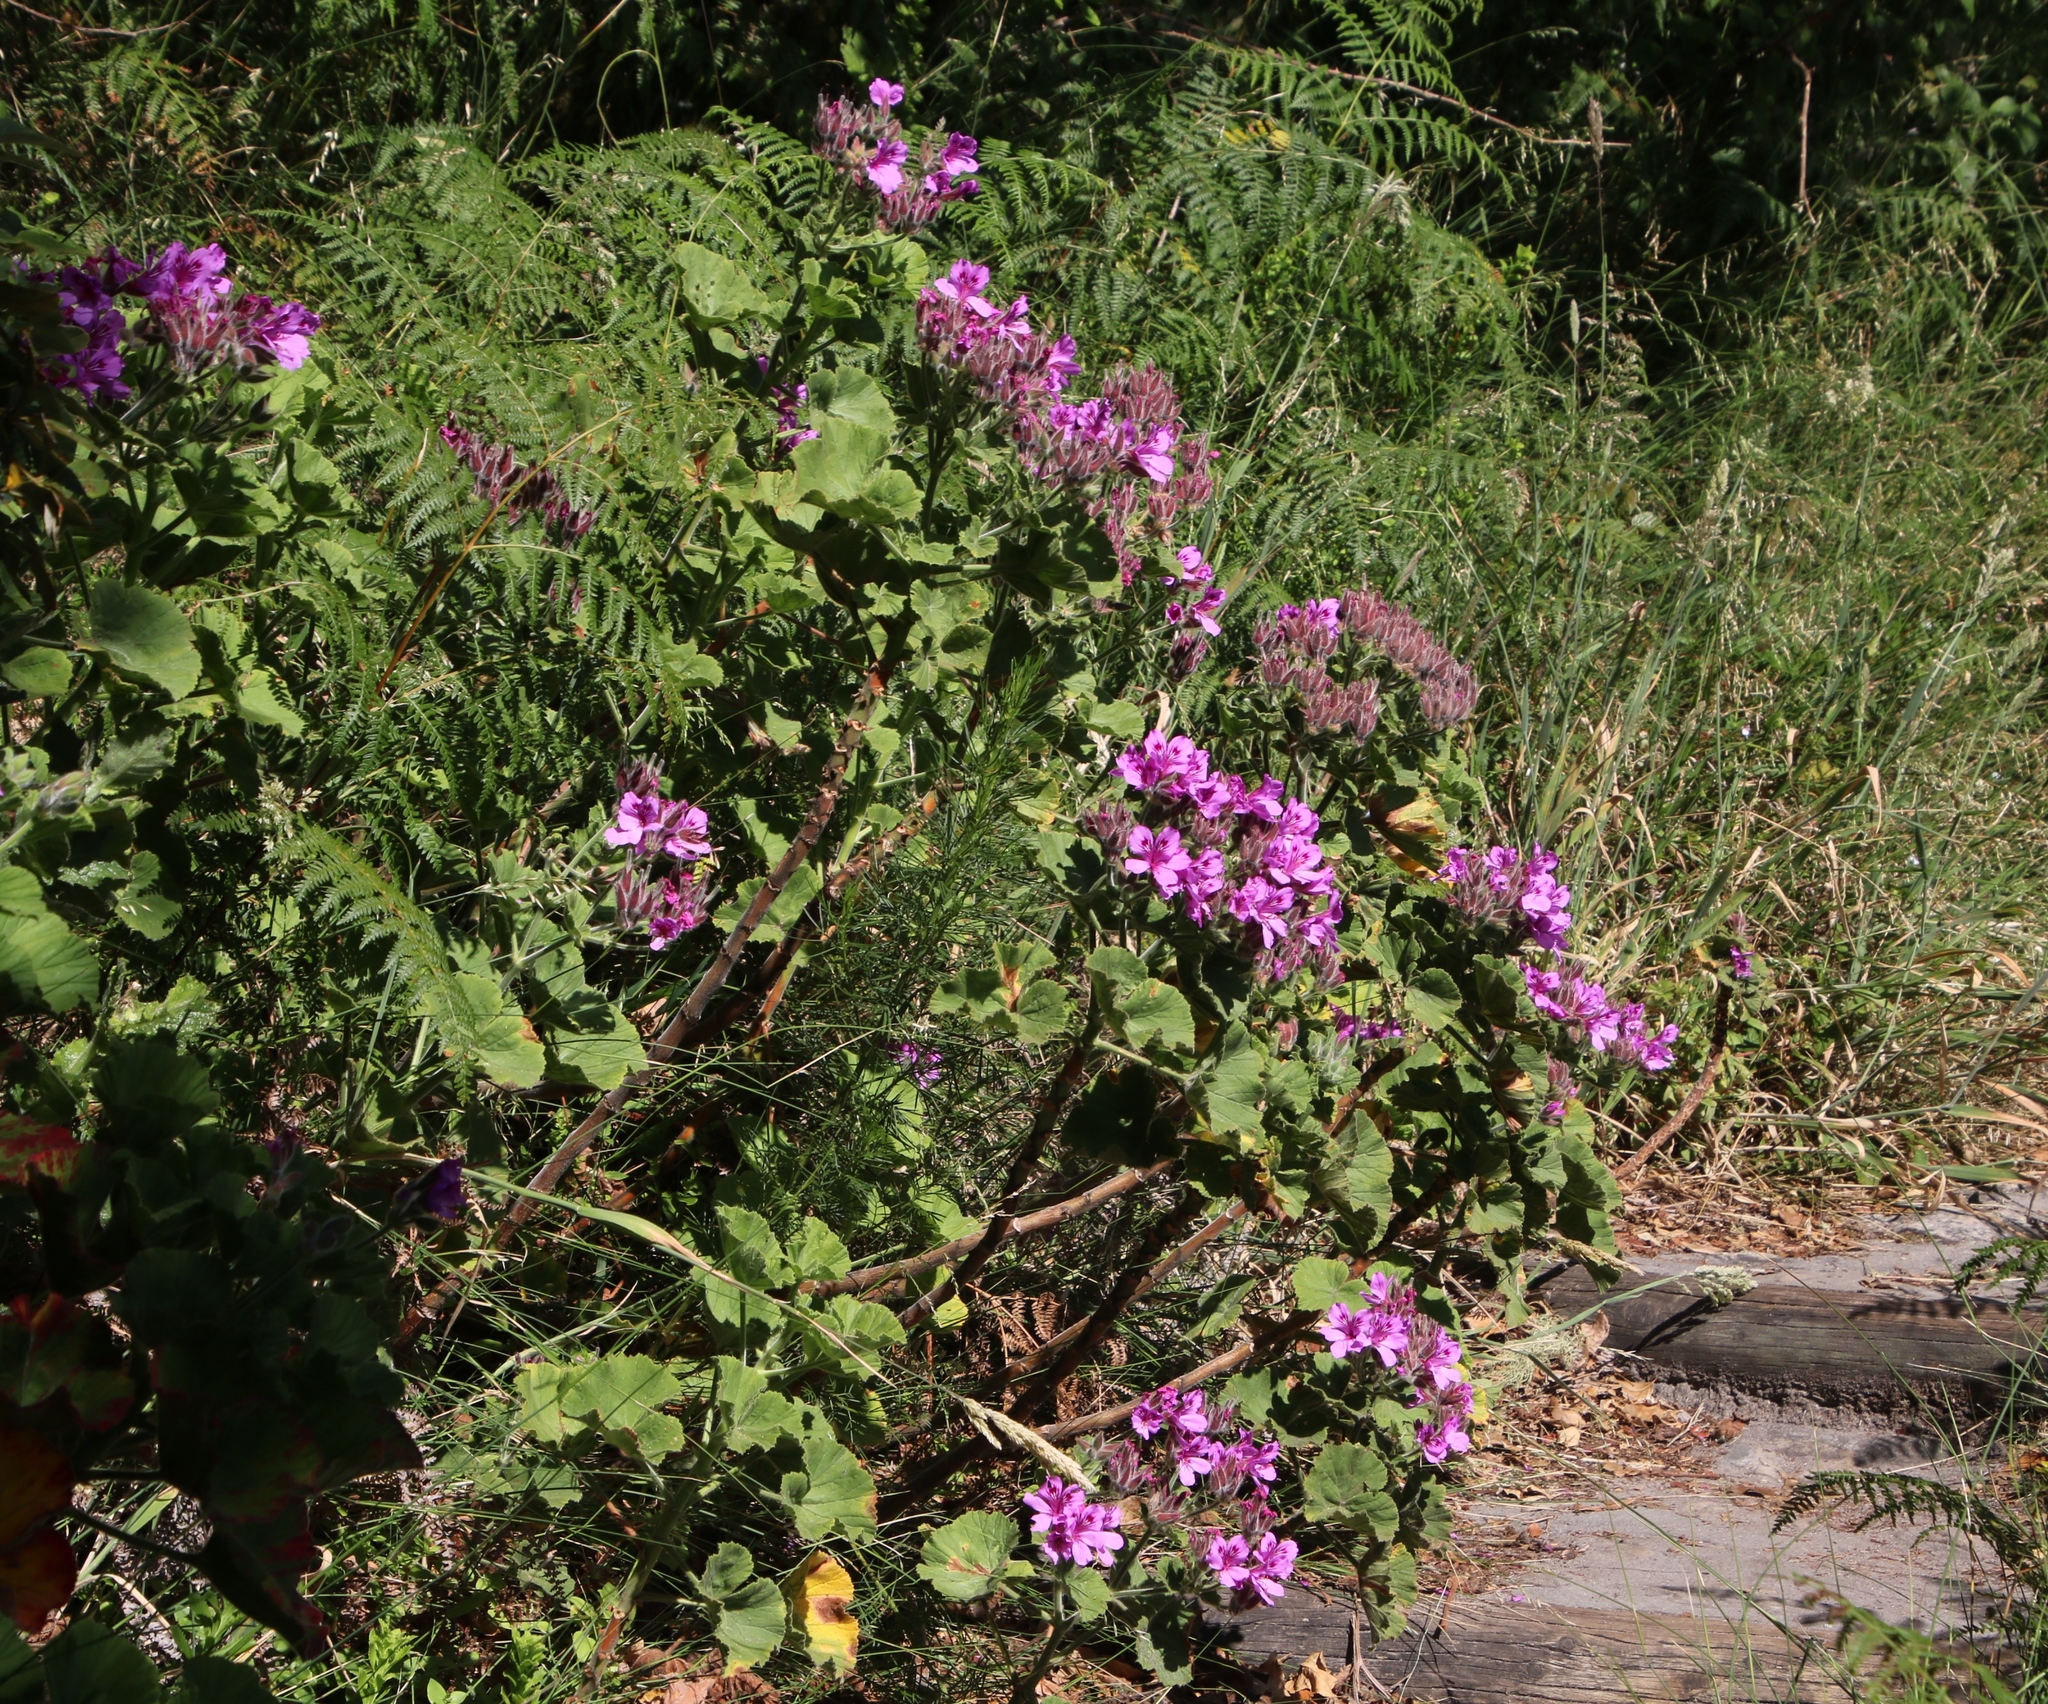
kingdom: Plantae
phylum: Tracheophyta
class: Magnoliopsida
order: Geraniales
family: Geraniaceae
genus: Pelargonium
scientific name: Pelargonium cucullatum
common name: Tree pelargonium
